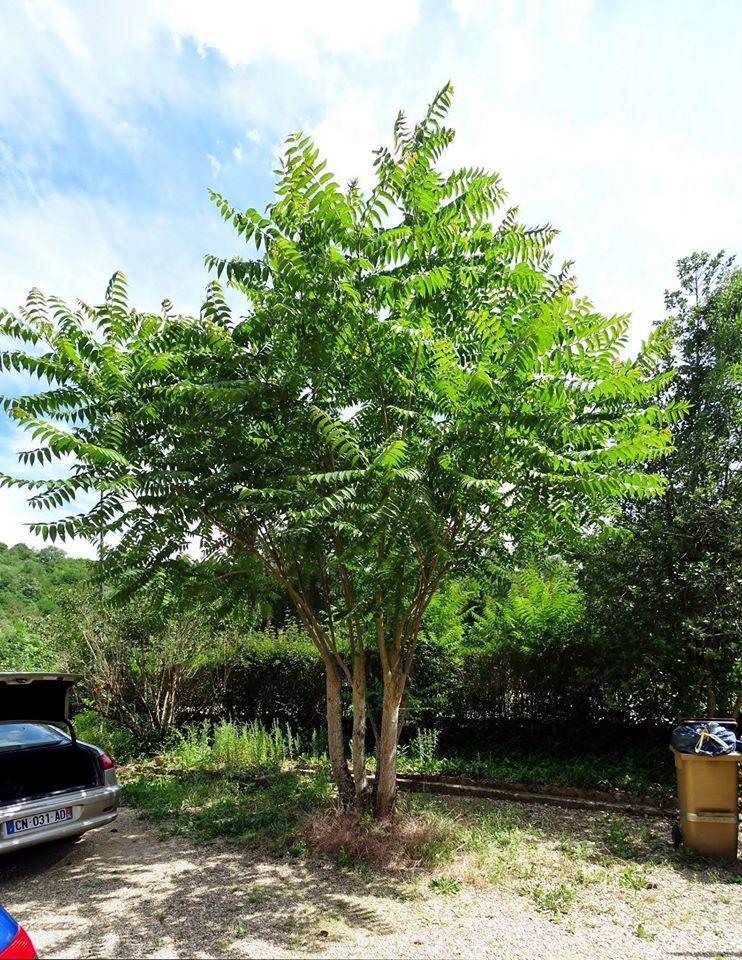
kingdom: Plantae
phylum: Tracheophyta
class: Magnoliopsida
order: Sapindales
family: Simaroubaceae
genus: Ailanthus
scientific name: Ailanthus altissima
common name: Tree-of-heaven
